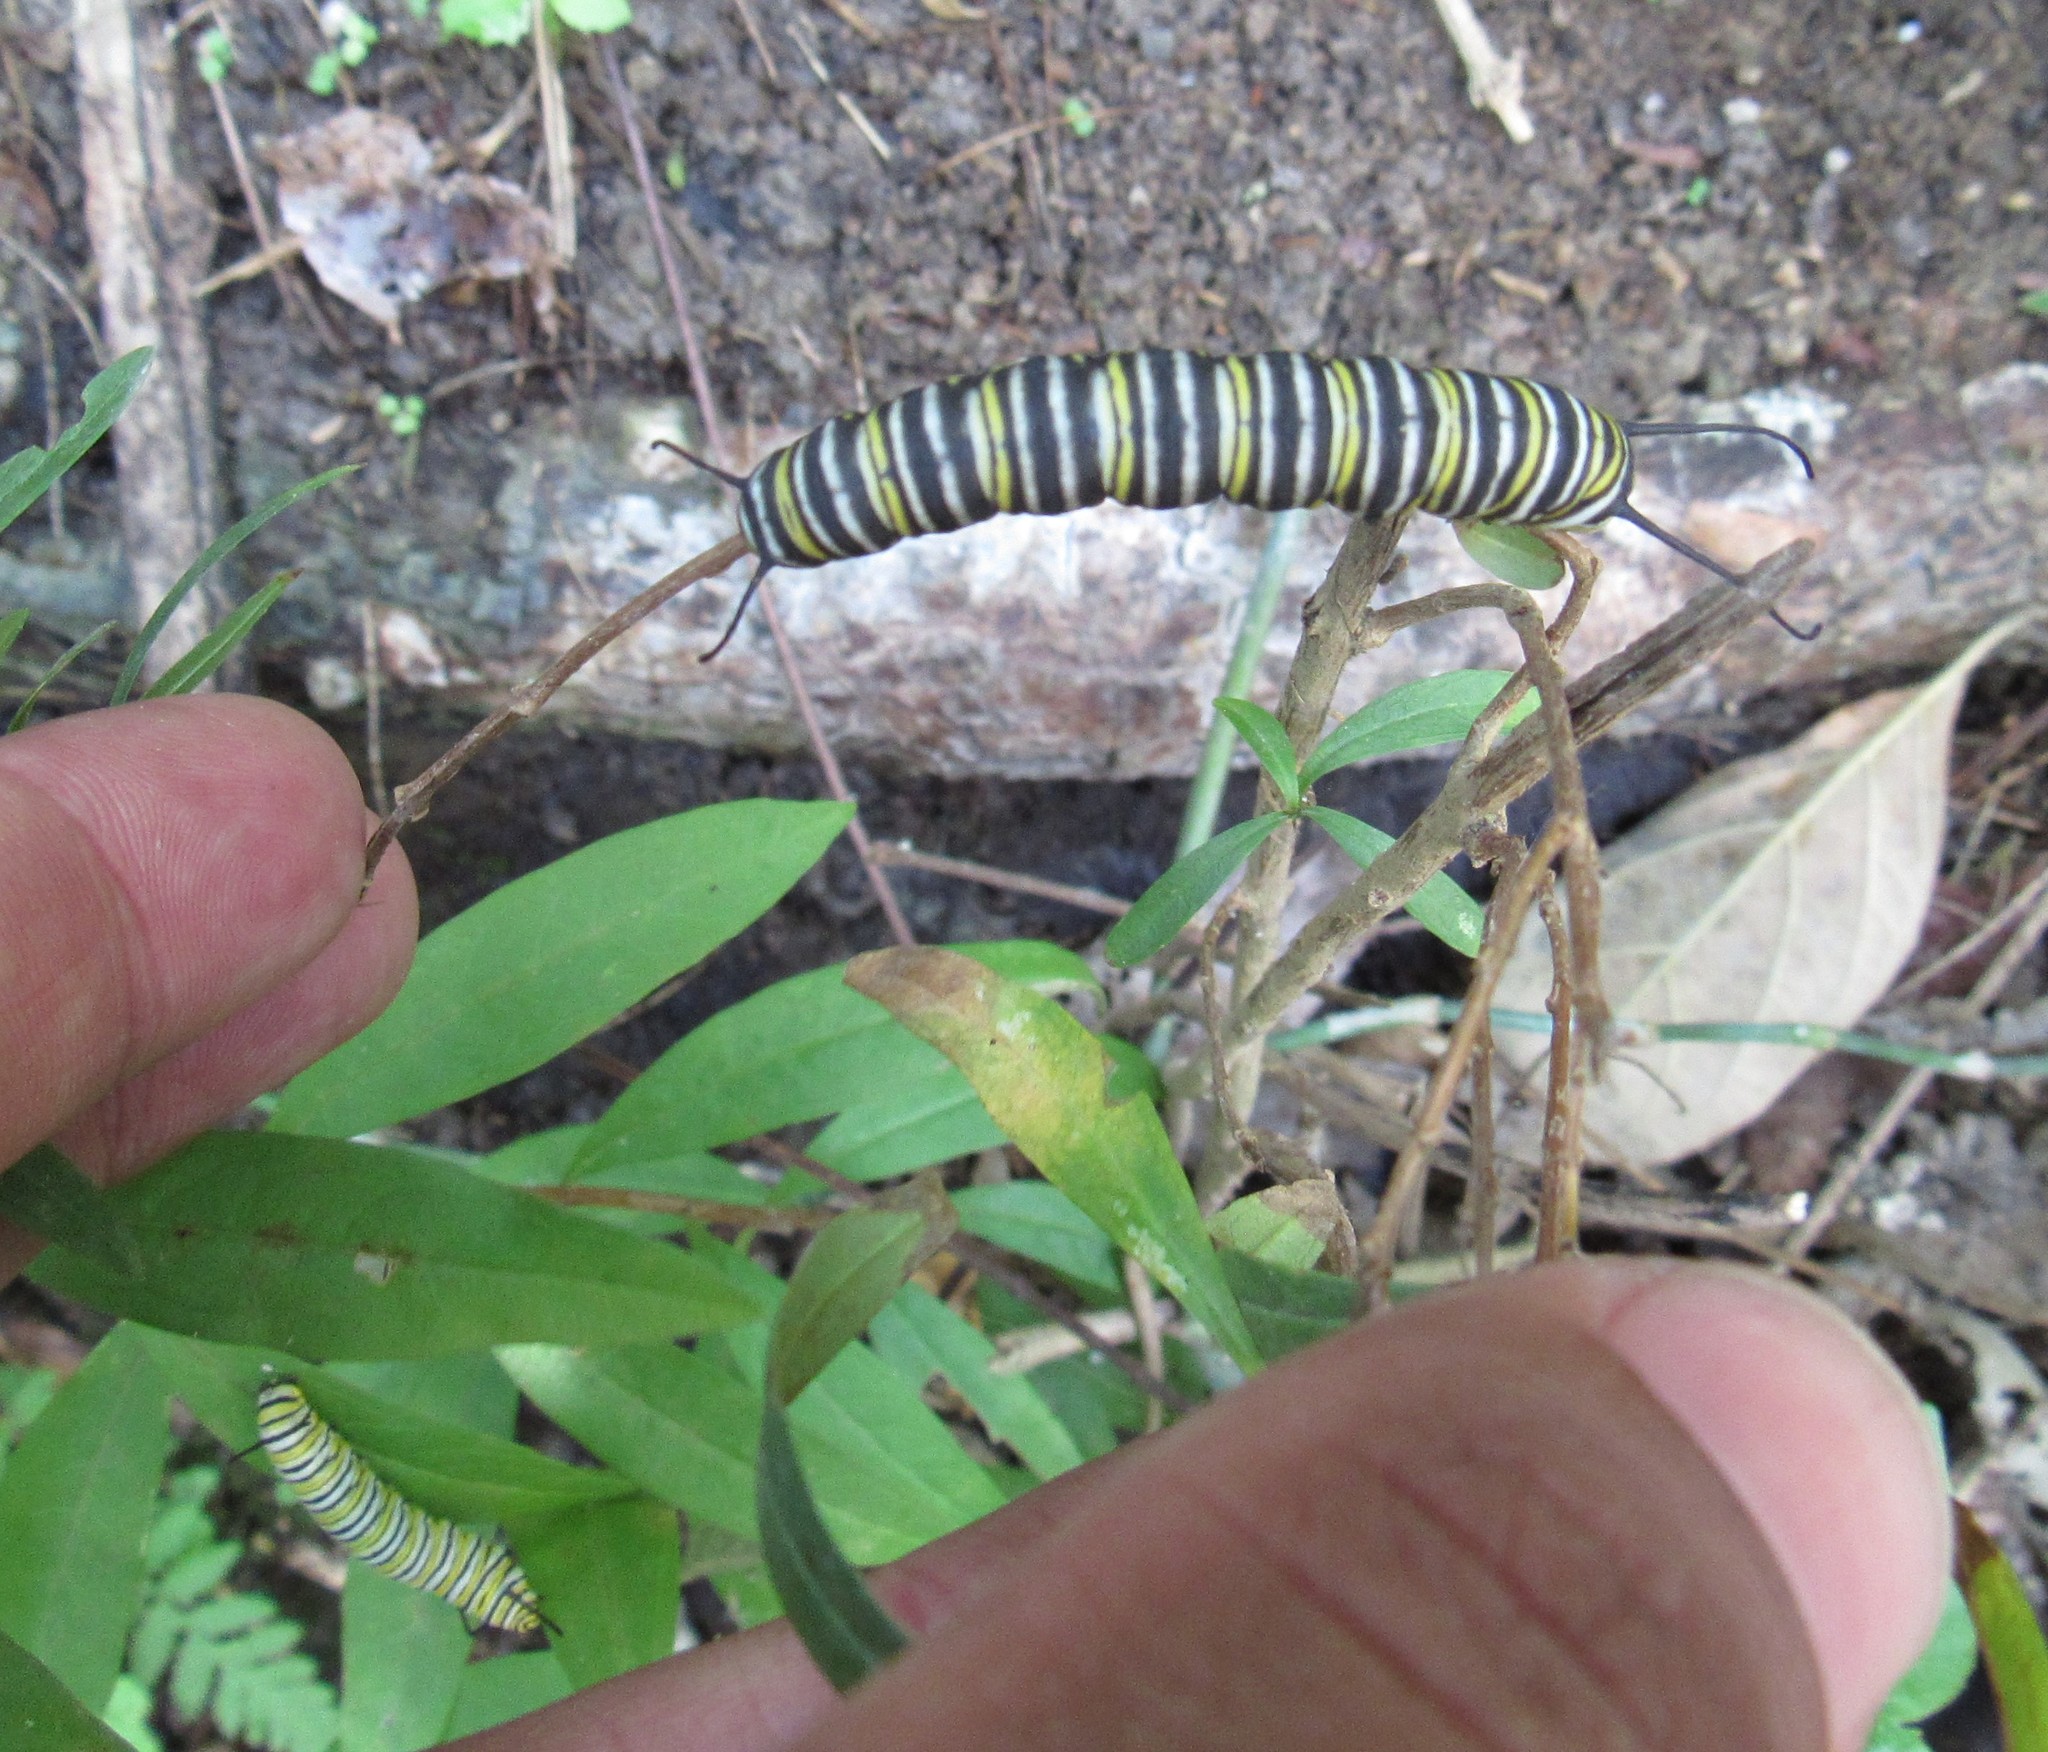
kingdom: Animalia
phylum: Arthropoda
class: Insecta
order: Lepidoptera
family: Nymphalidae
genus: Danaus
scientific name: Danaus plexippus
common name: Monarch
